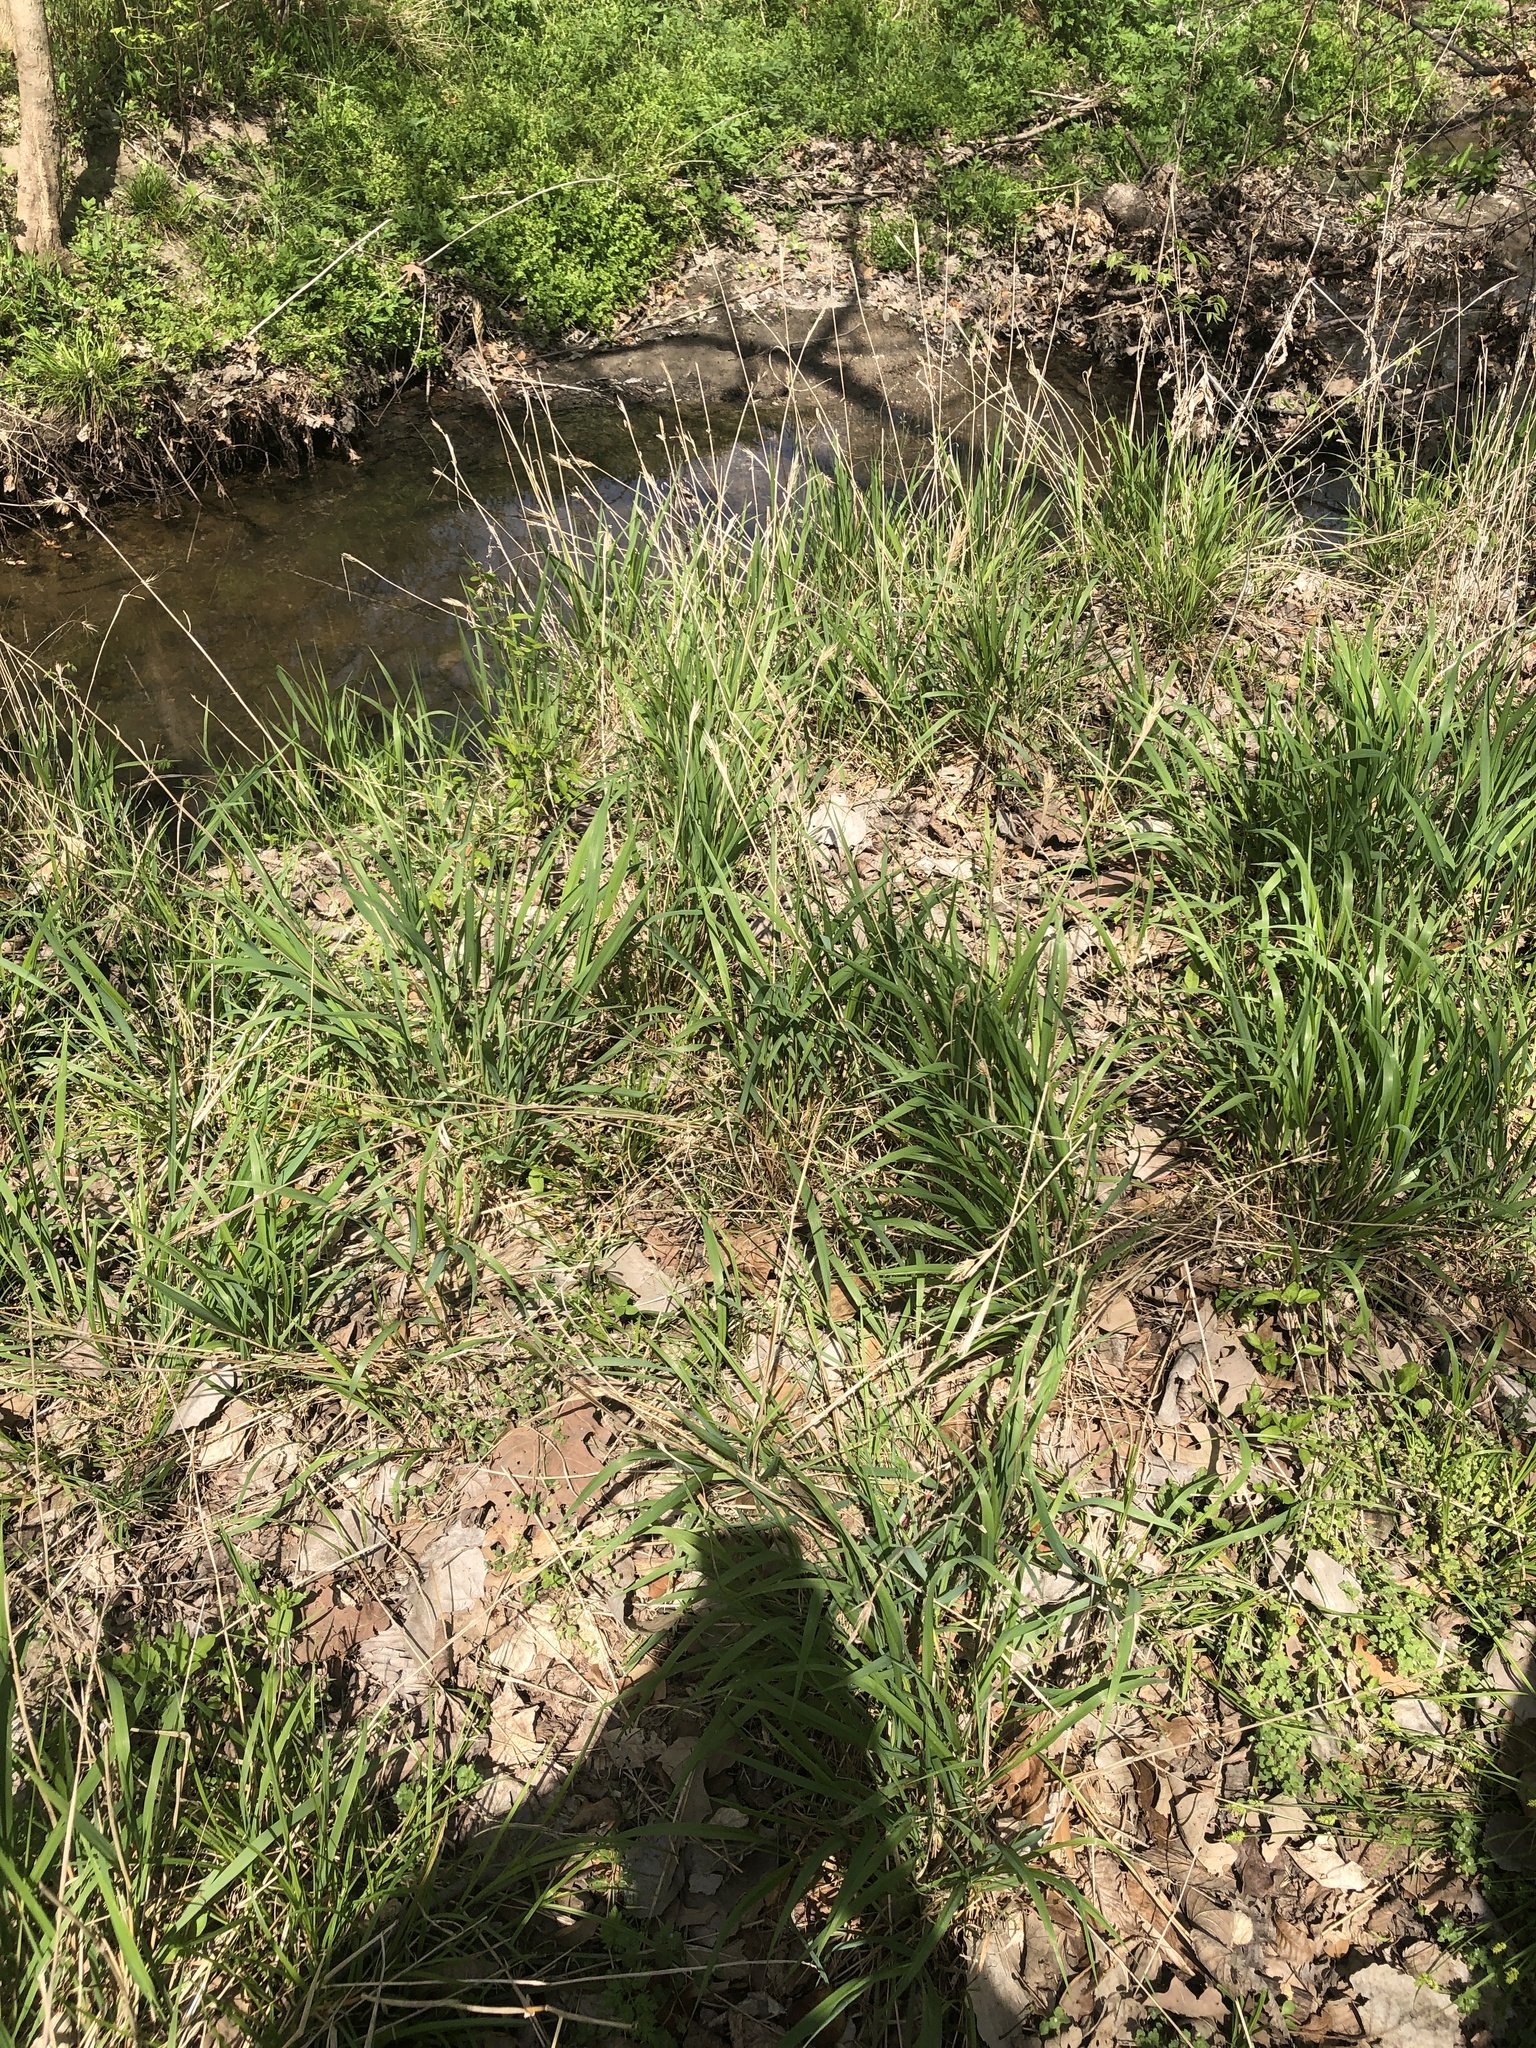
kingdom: Plantae
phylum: Tracheophyta
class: Liliopsida
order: Poales
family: Poaceae
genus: Elymus
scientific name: Elymus virginicus
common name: Common eastern wildrye
